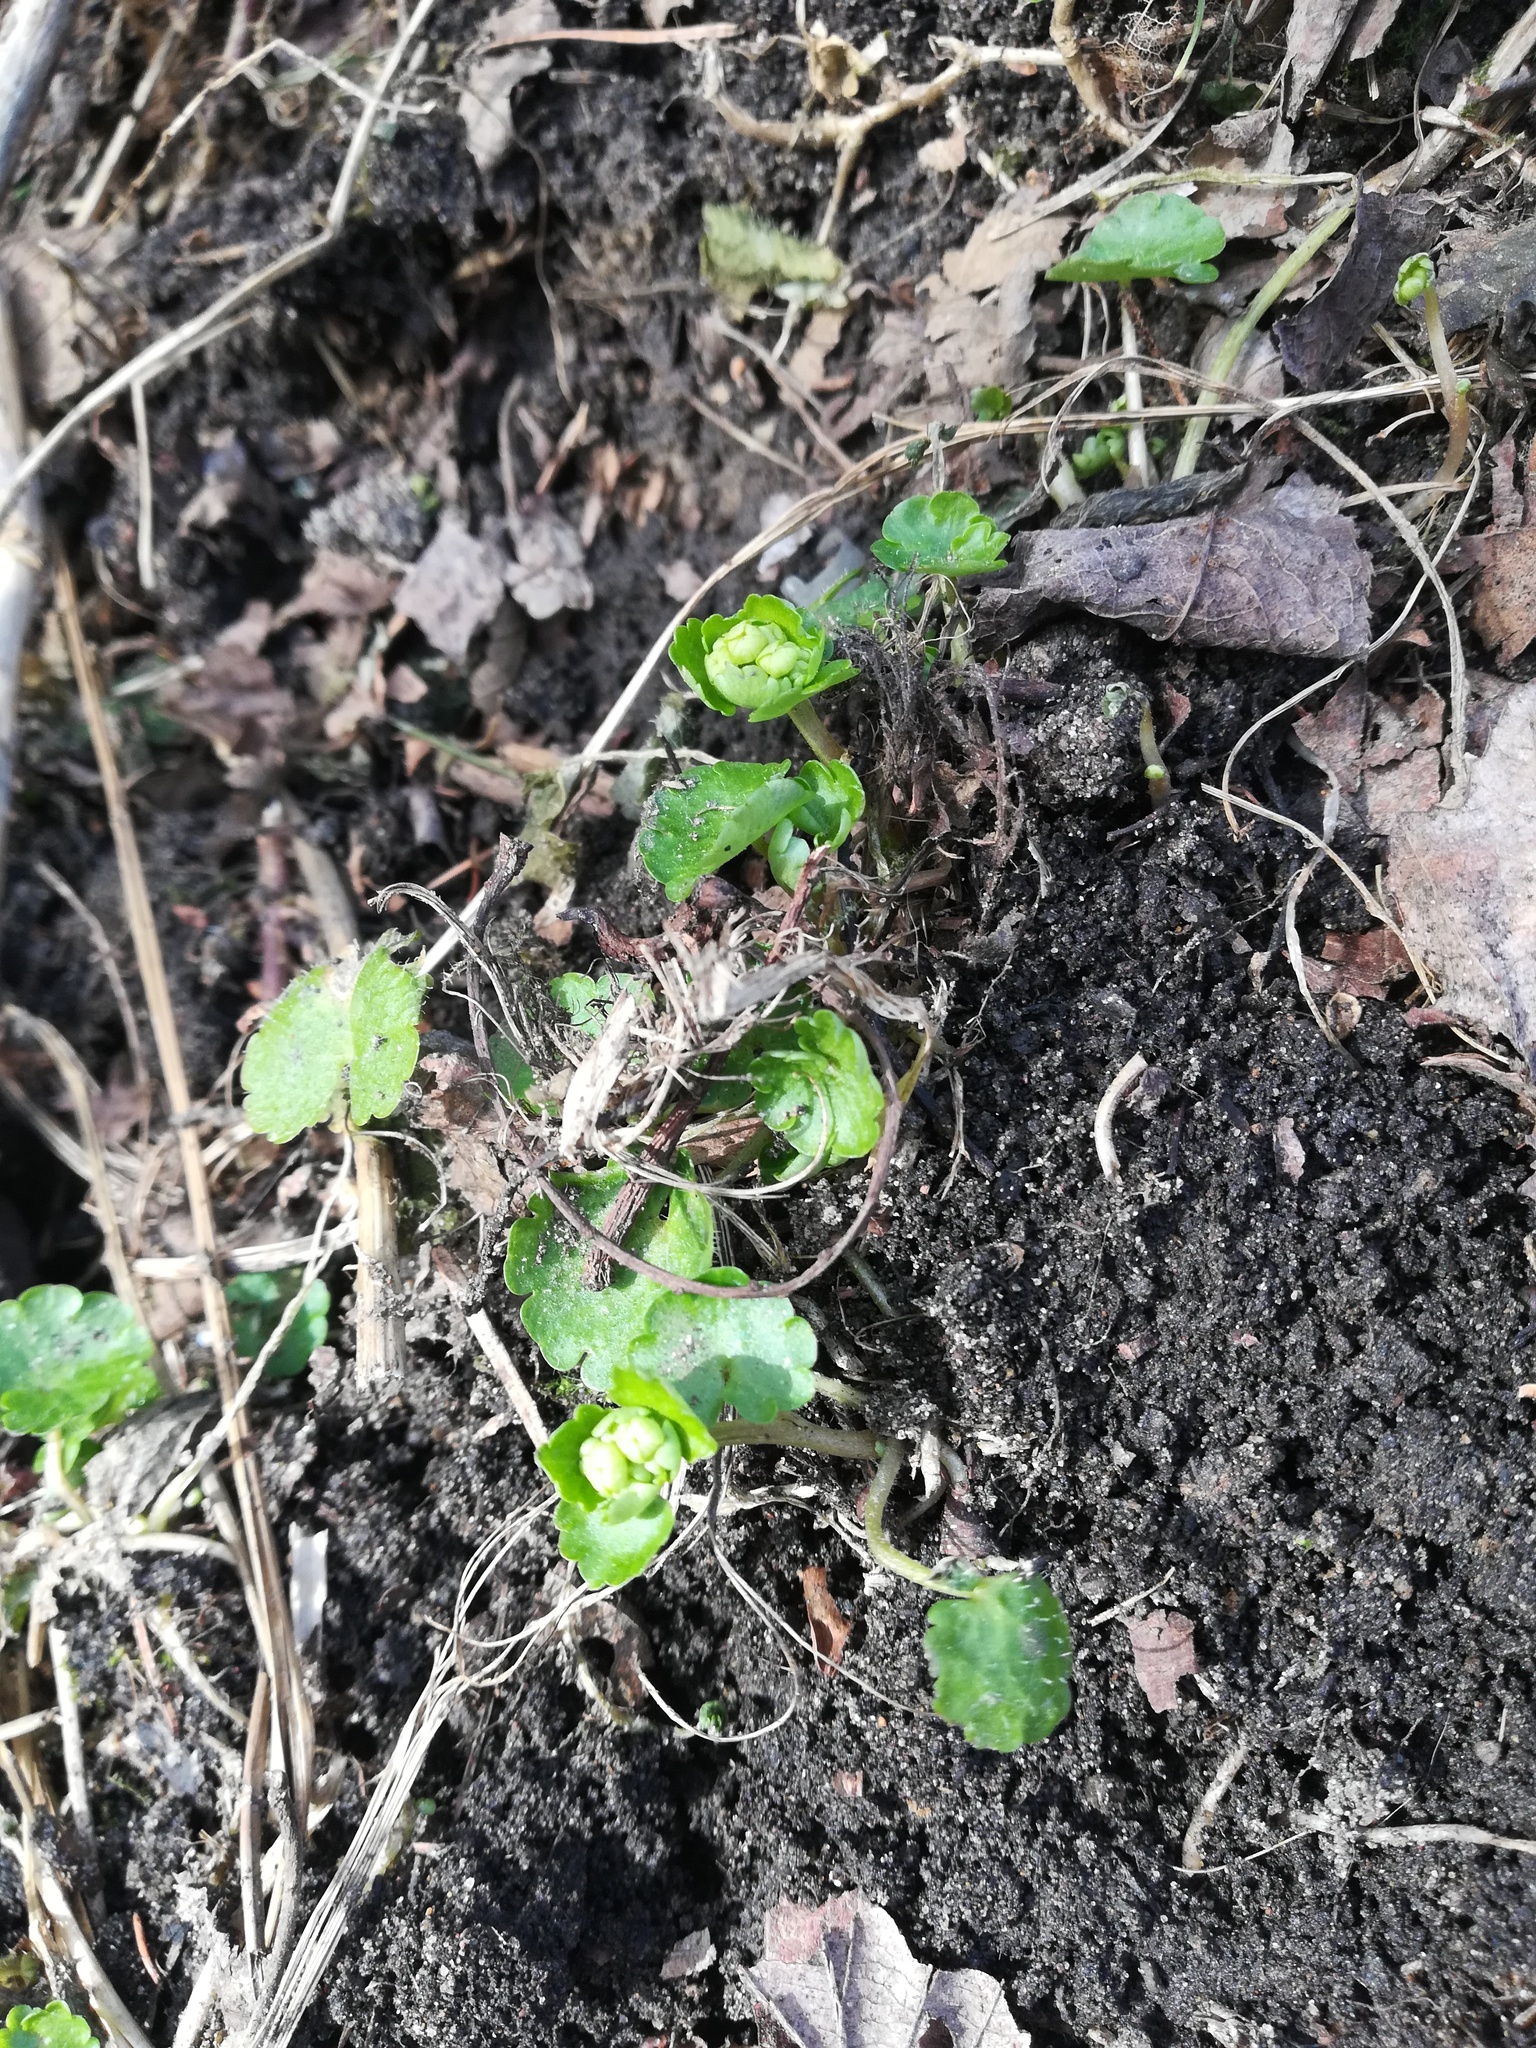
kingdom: Plantae
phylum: Tracheophyta
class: Magnoliopsida
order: Saxifragales
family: Saxifragaceae
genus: Chrysosplenium
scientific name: Chrysosplenium alternifolium
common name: Alternate-leaved golden-saxifrage
